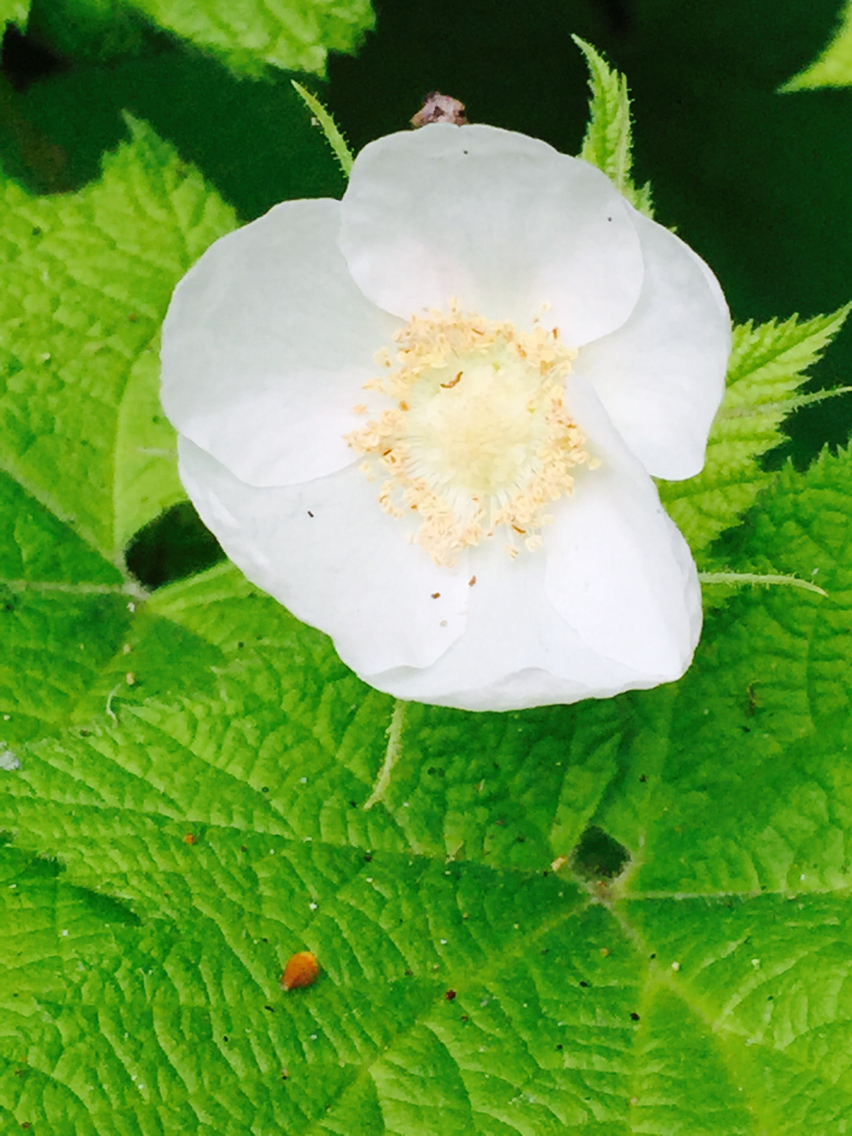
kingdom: Plantae
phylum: Tracheophyta
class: Magnoliopsida
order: Rosales
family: Rosaceae
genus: Rubus
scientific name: Rubus parviflorus
